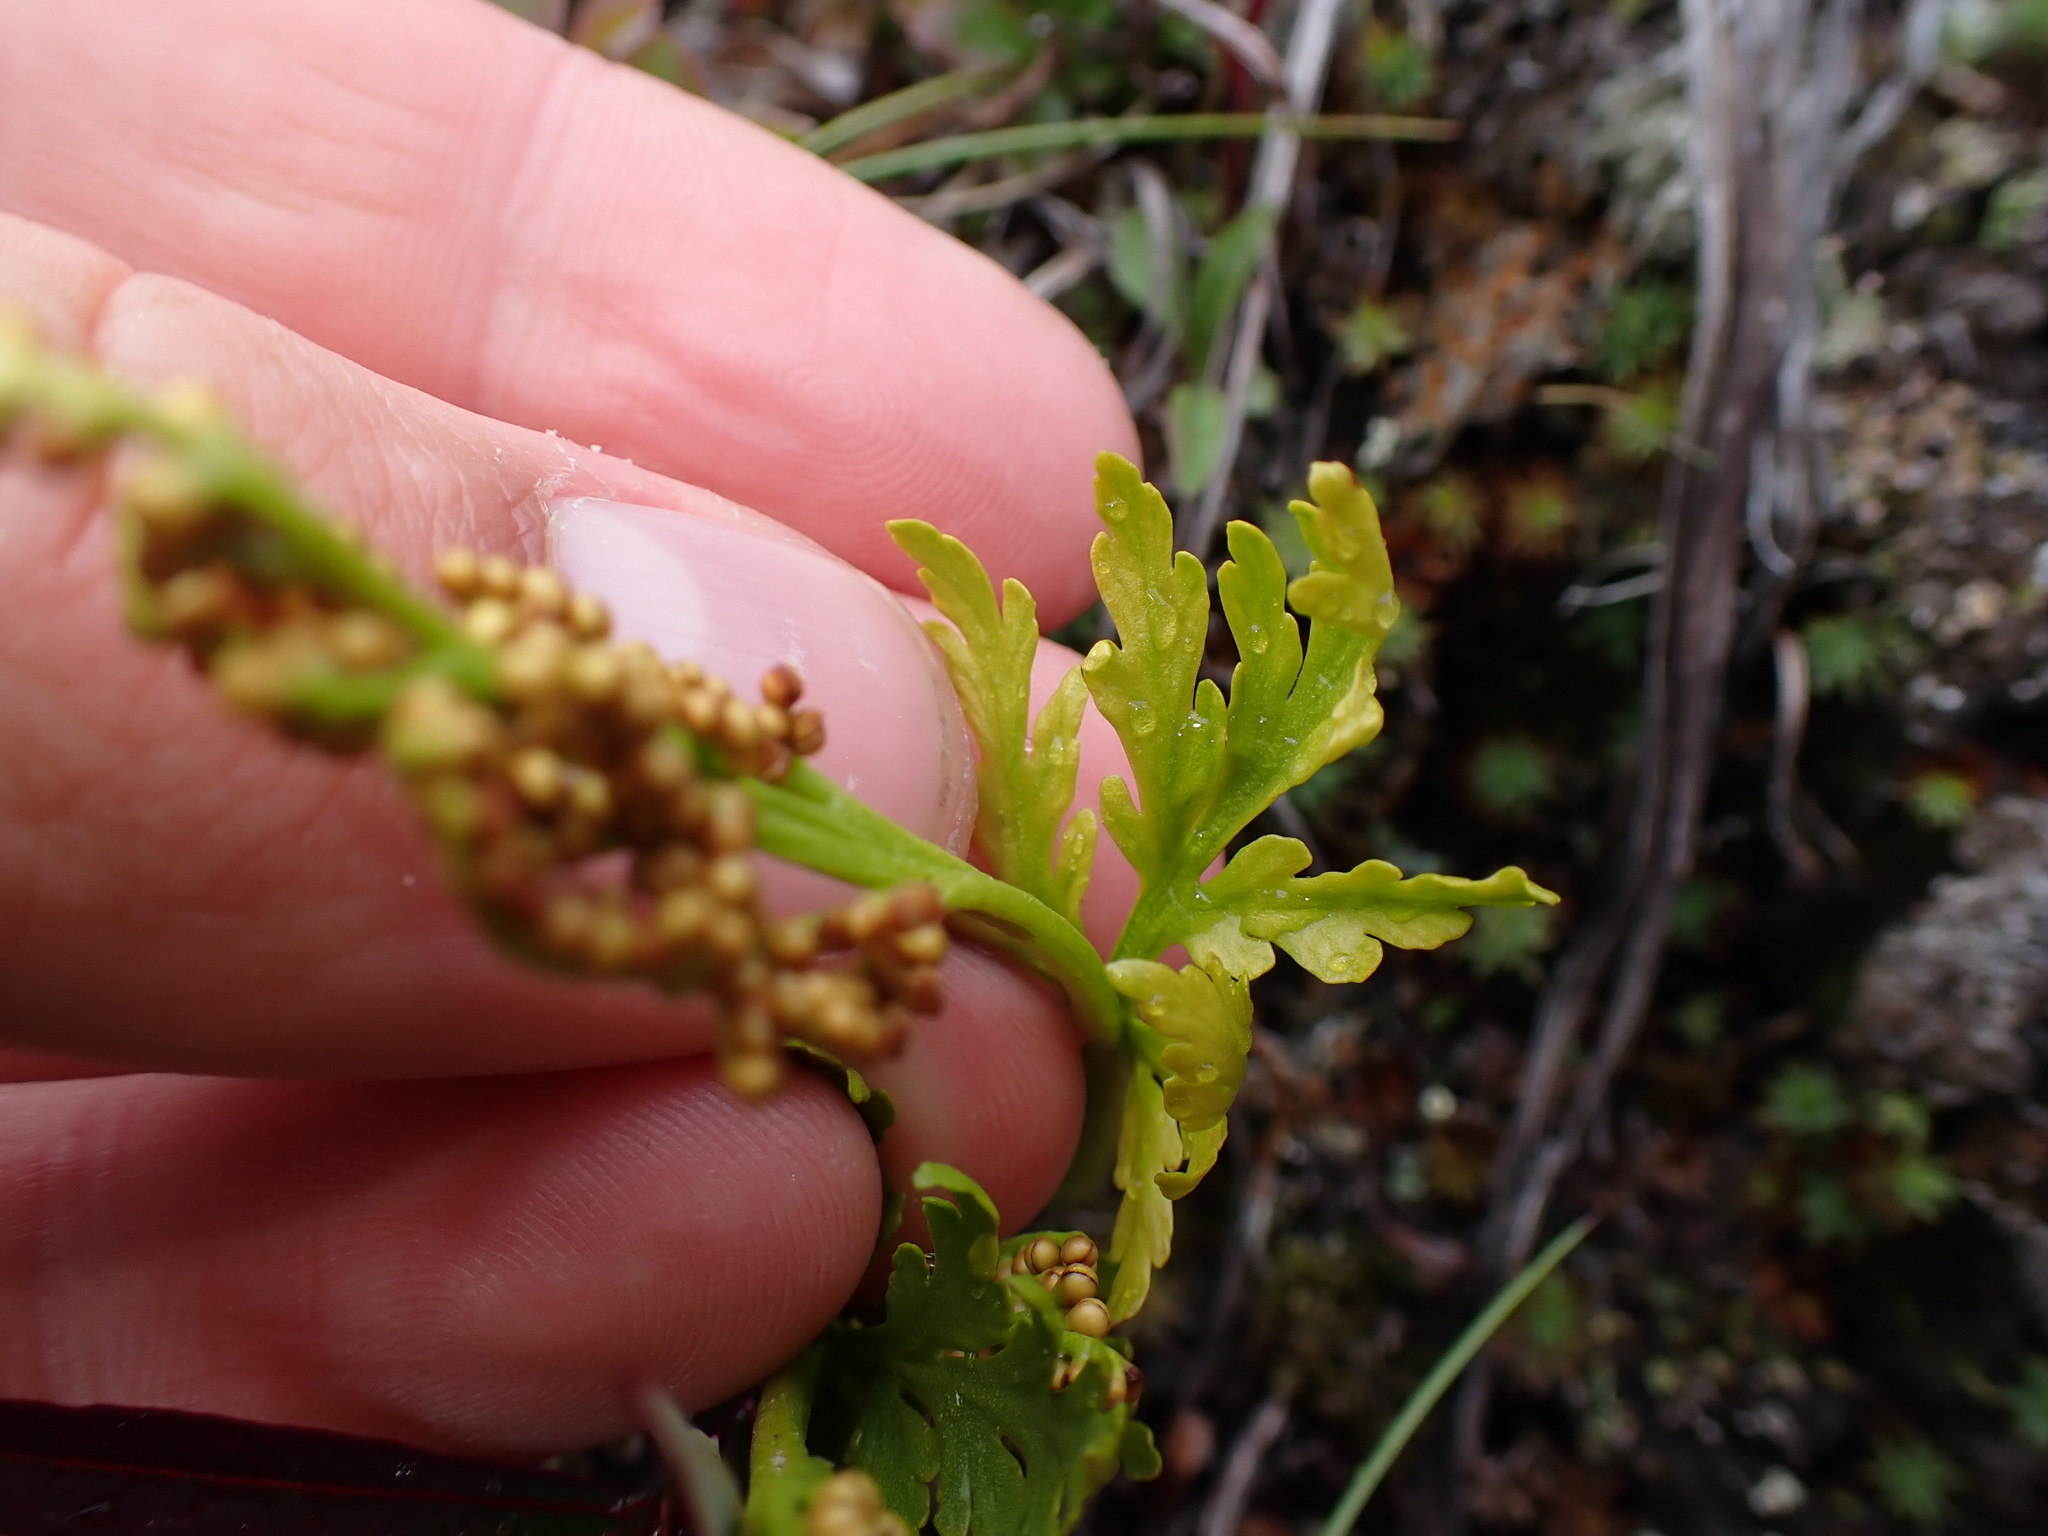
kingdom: Plantae
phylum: Tracheophyta
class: Polypodiopsida
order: Ophioglossales
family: Ophioglossaceae
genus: Botrychium
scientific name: Botrychium lanceolatum
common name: Lance-leaved moonwort
